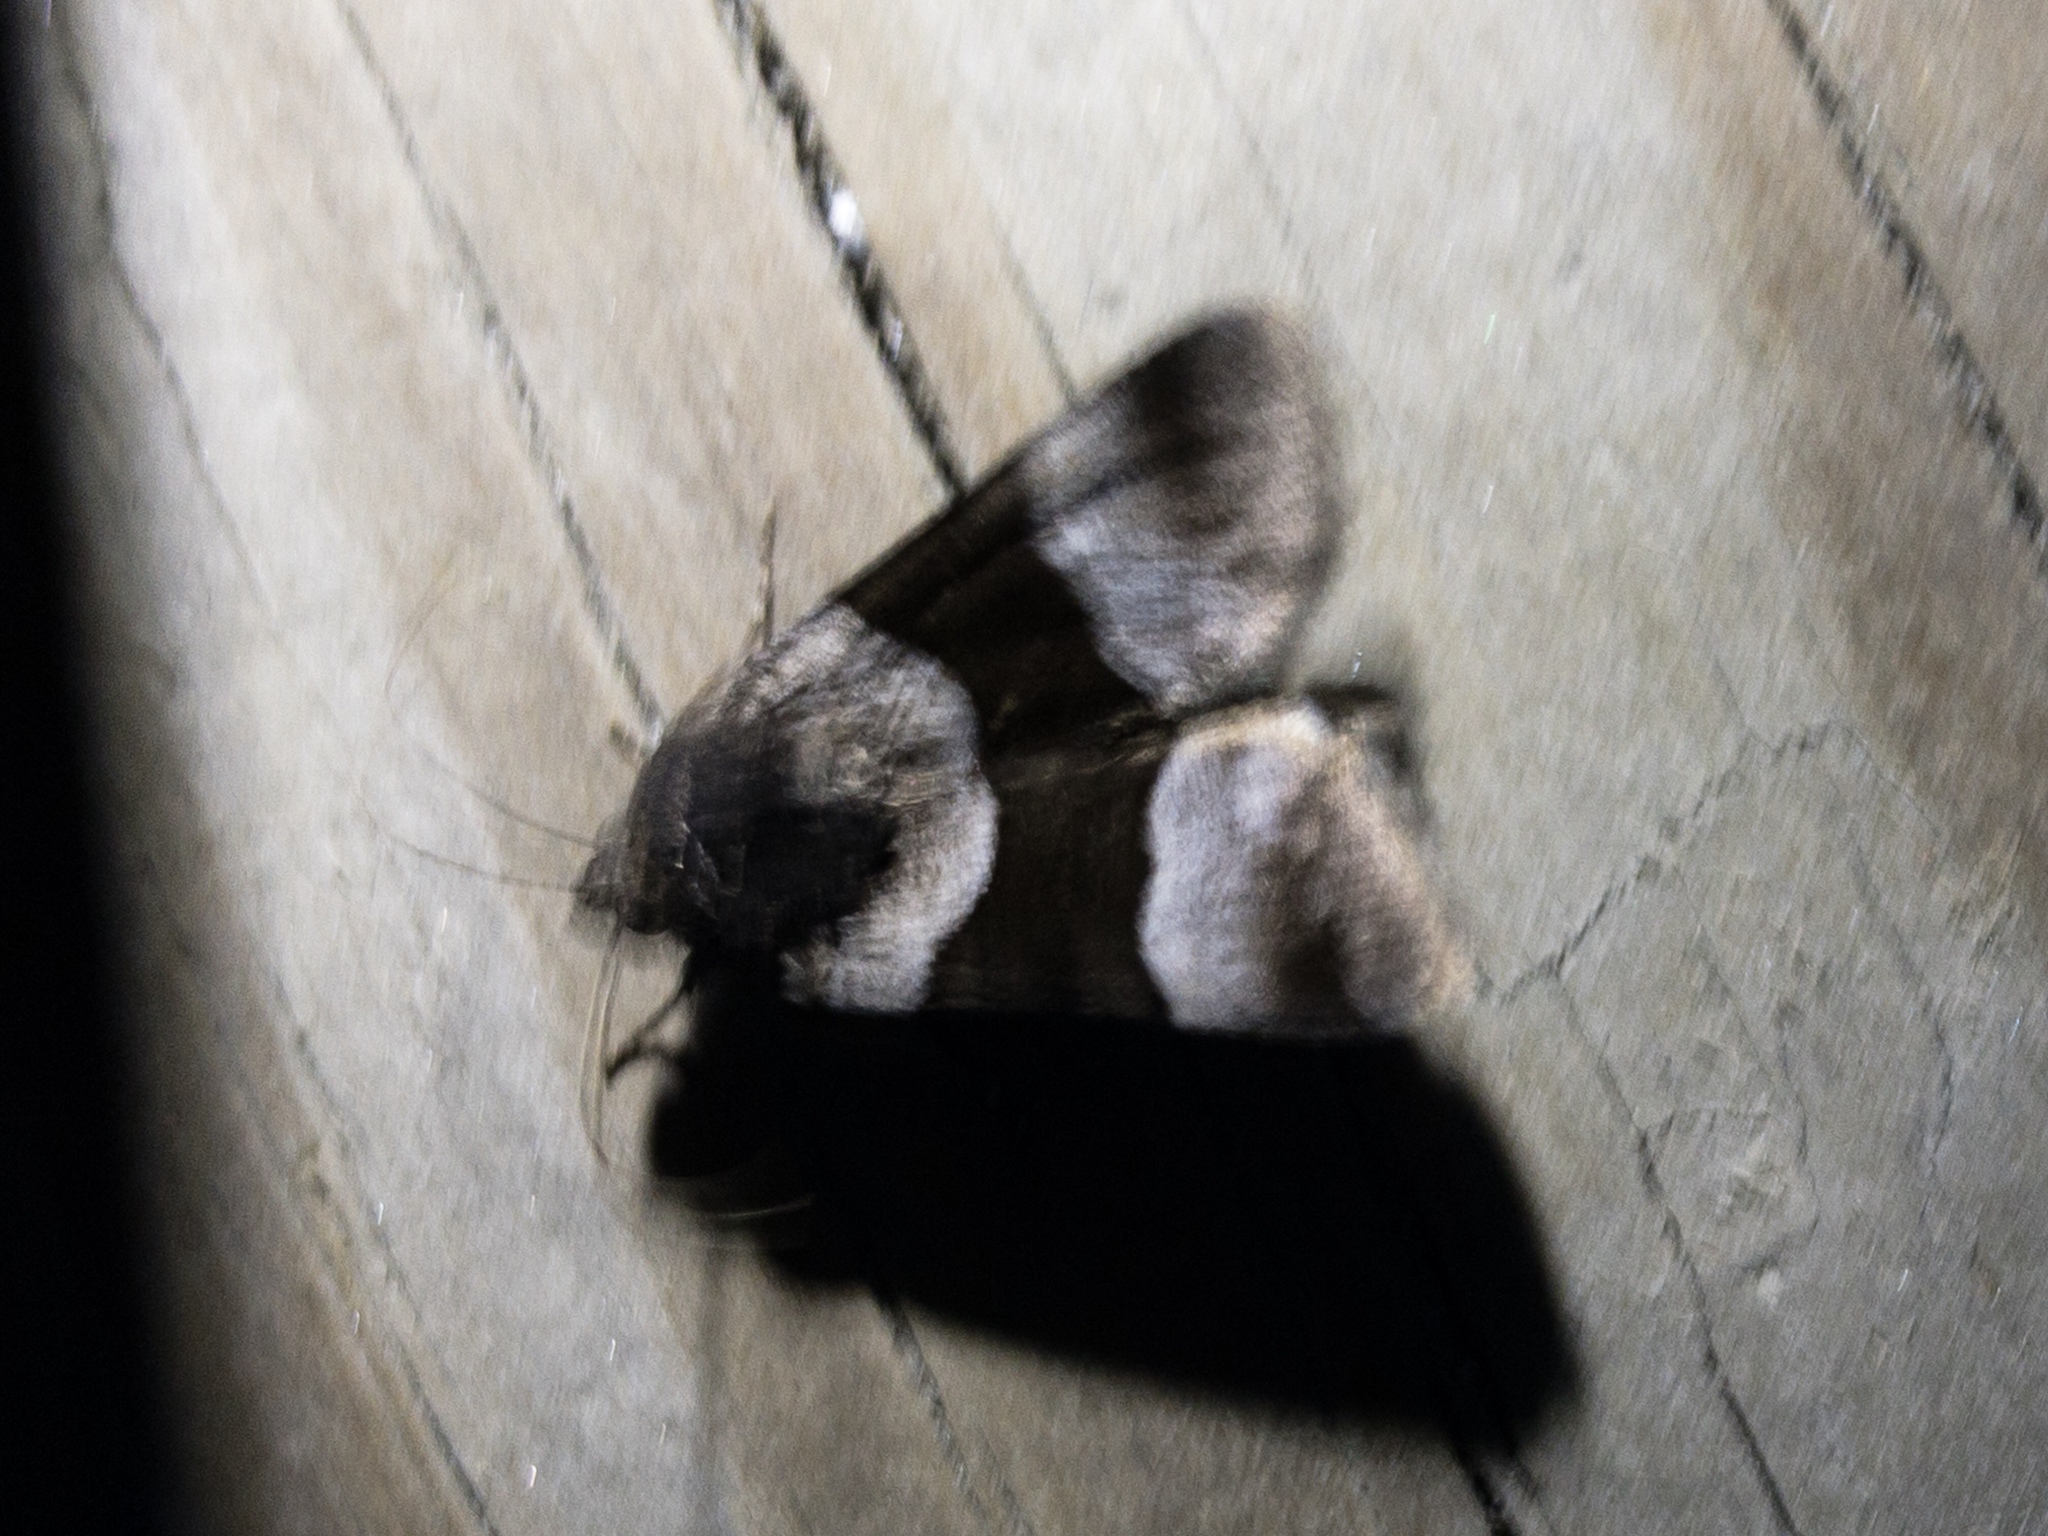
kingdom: Animalia
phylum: Arthropoda
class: Insecta
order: Lepidoptera
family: Noctuidae
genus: Sympistis
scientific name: Sympistis piffardi
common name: Three-striped oncocnemis
